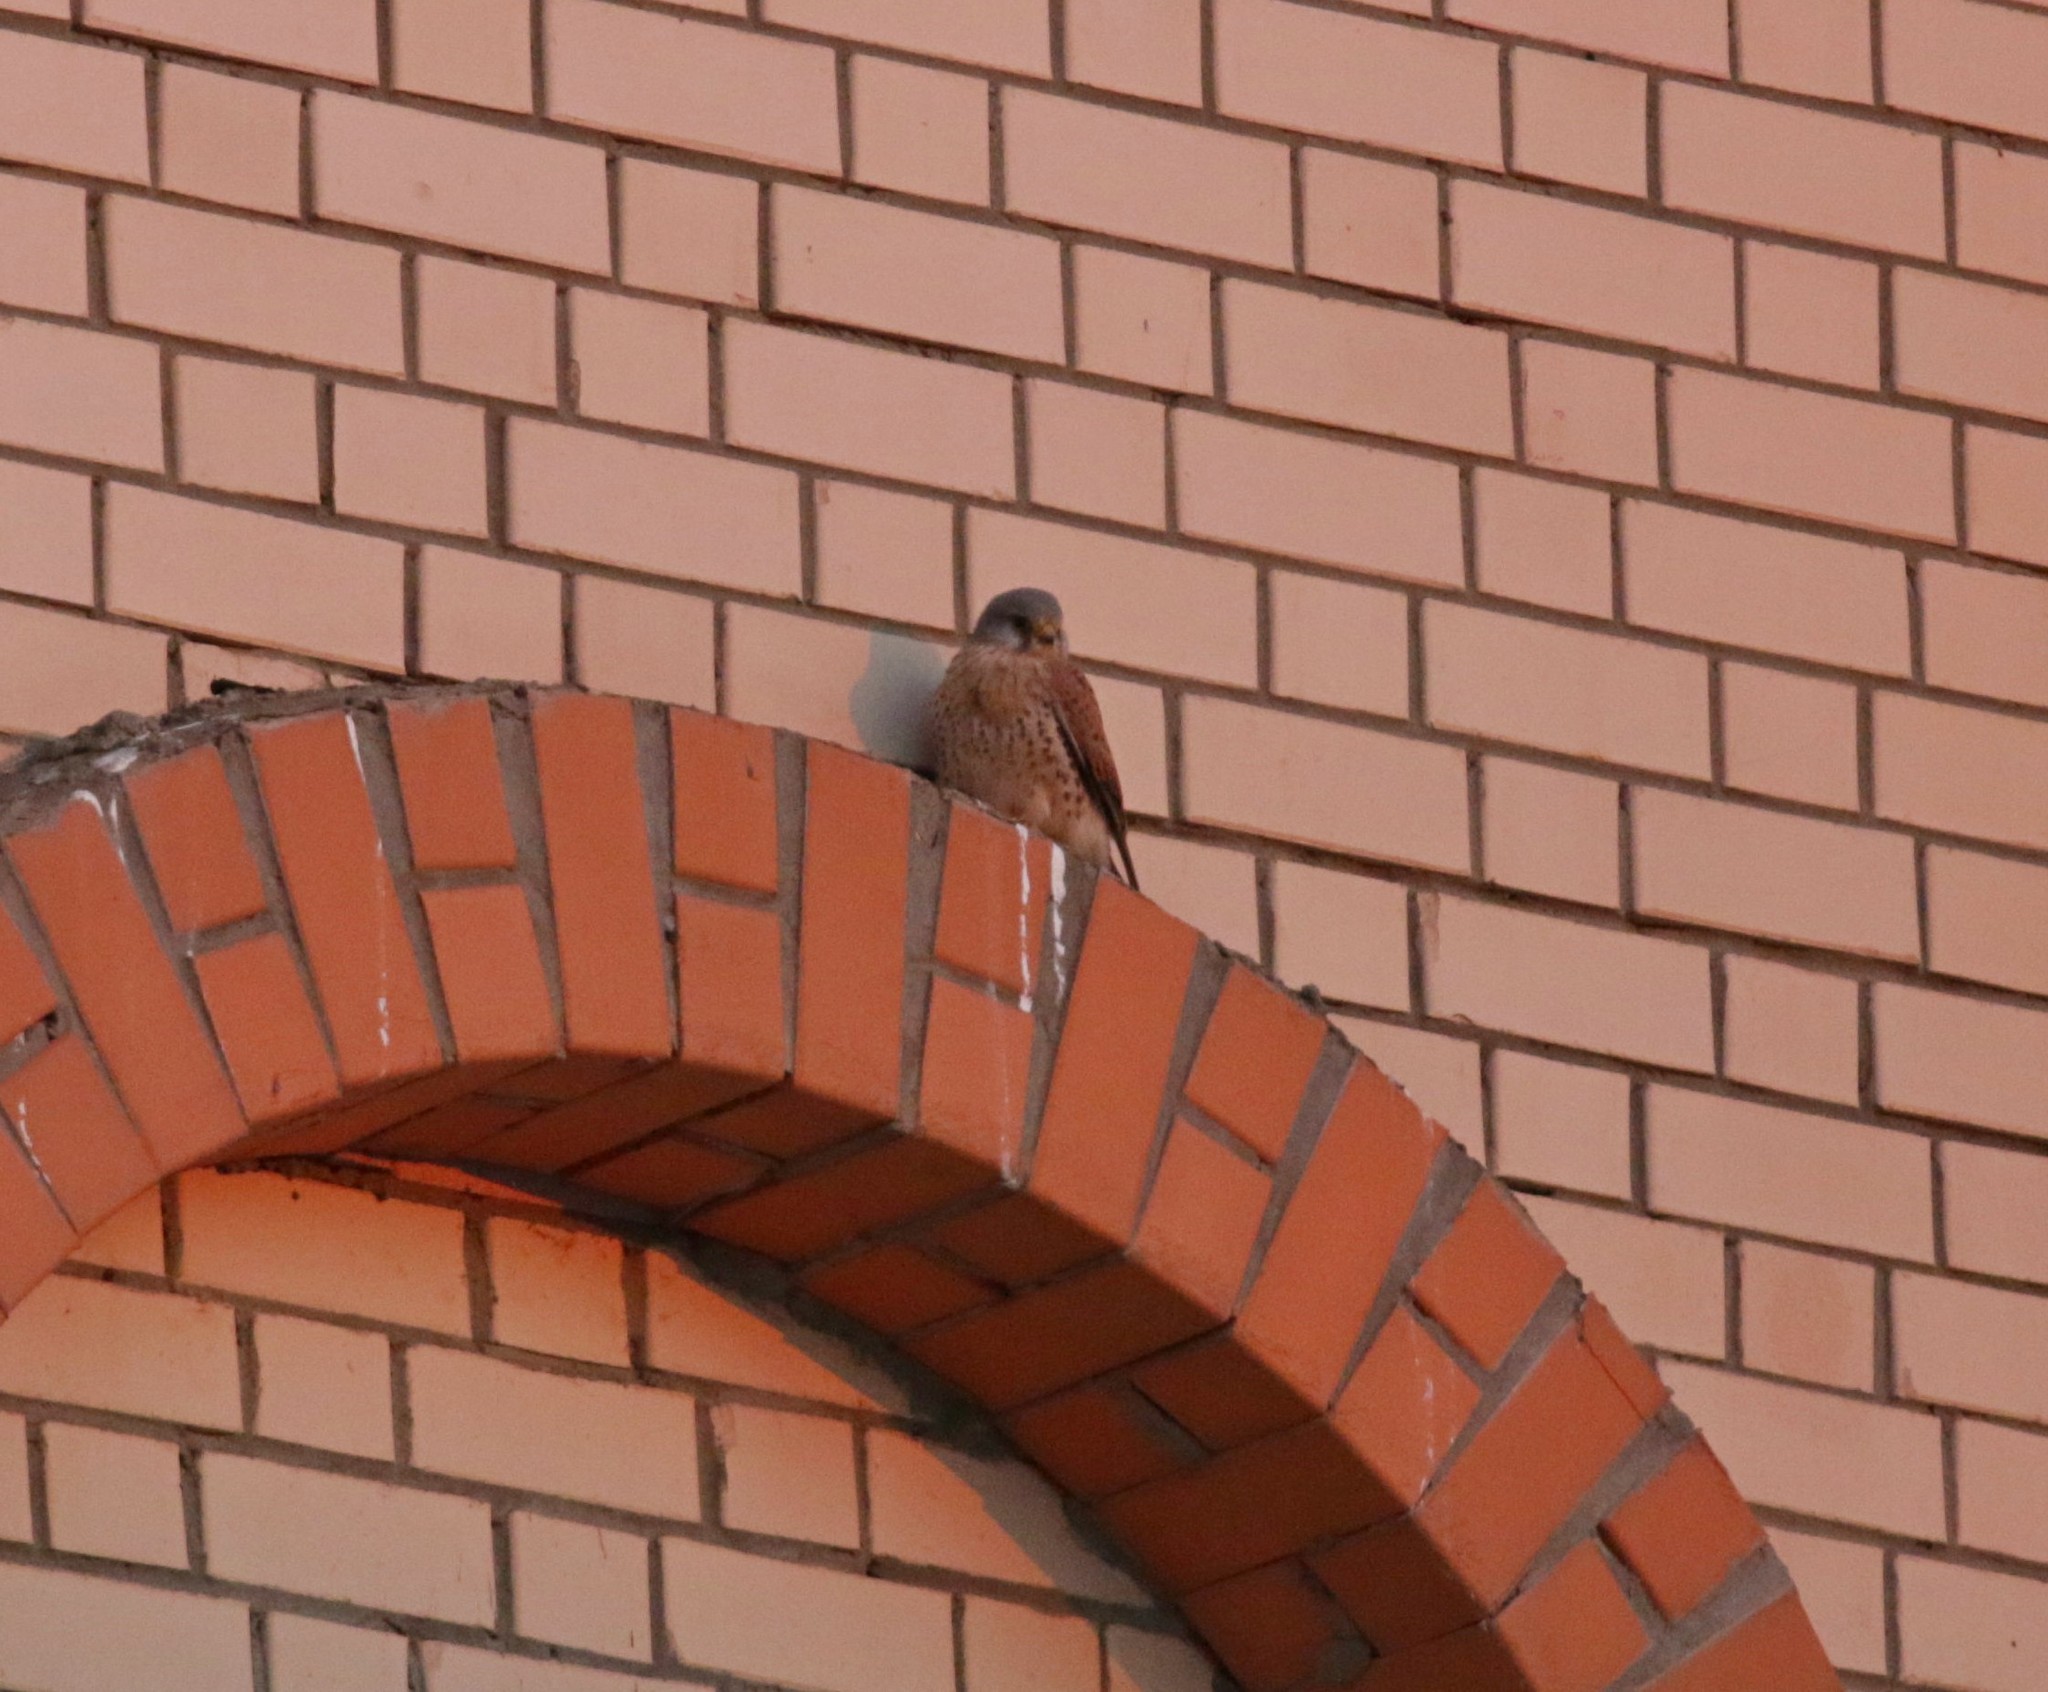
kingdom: Animalia
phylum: Chordata
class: Aves
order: Falconiformes
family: Falconidae
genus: Falco
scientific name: Falco tinnunculus
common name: Common kestrel
